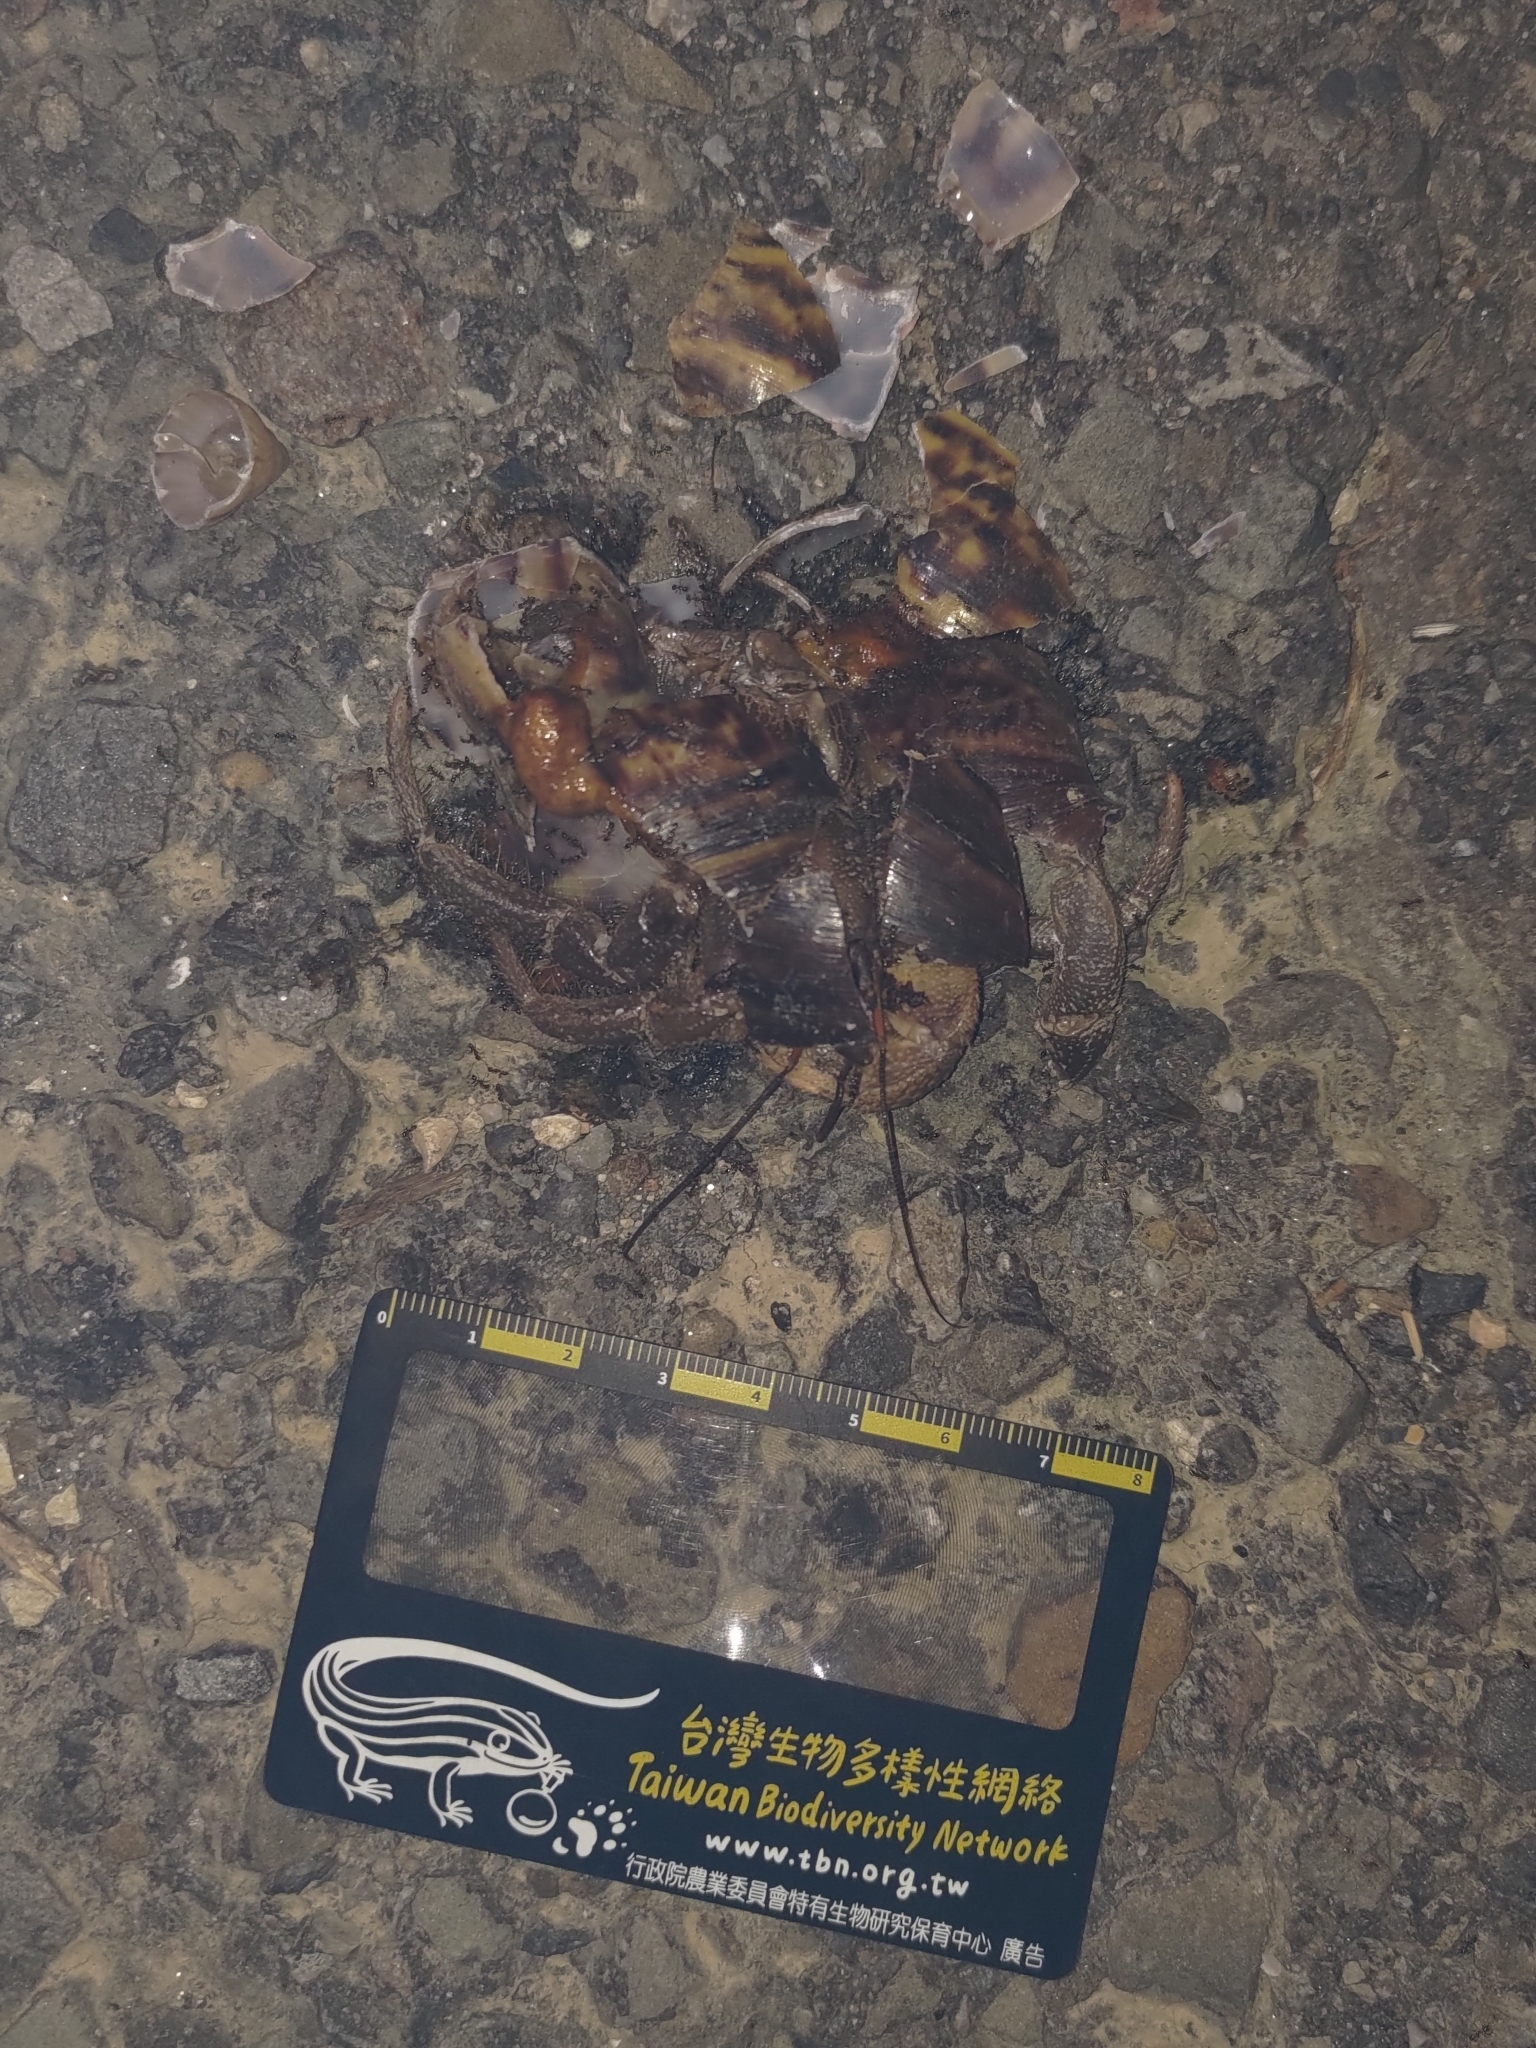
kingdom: Animalia
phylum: Arthropoda
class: Malacostraca
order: Decapoda
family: Coenobitidae
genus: Coenobita
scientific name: Coenobita cavipes
